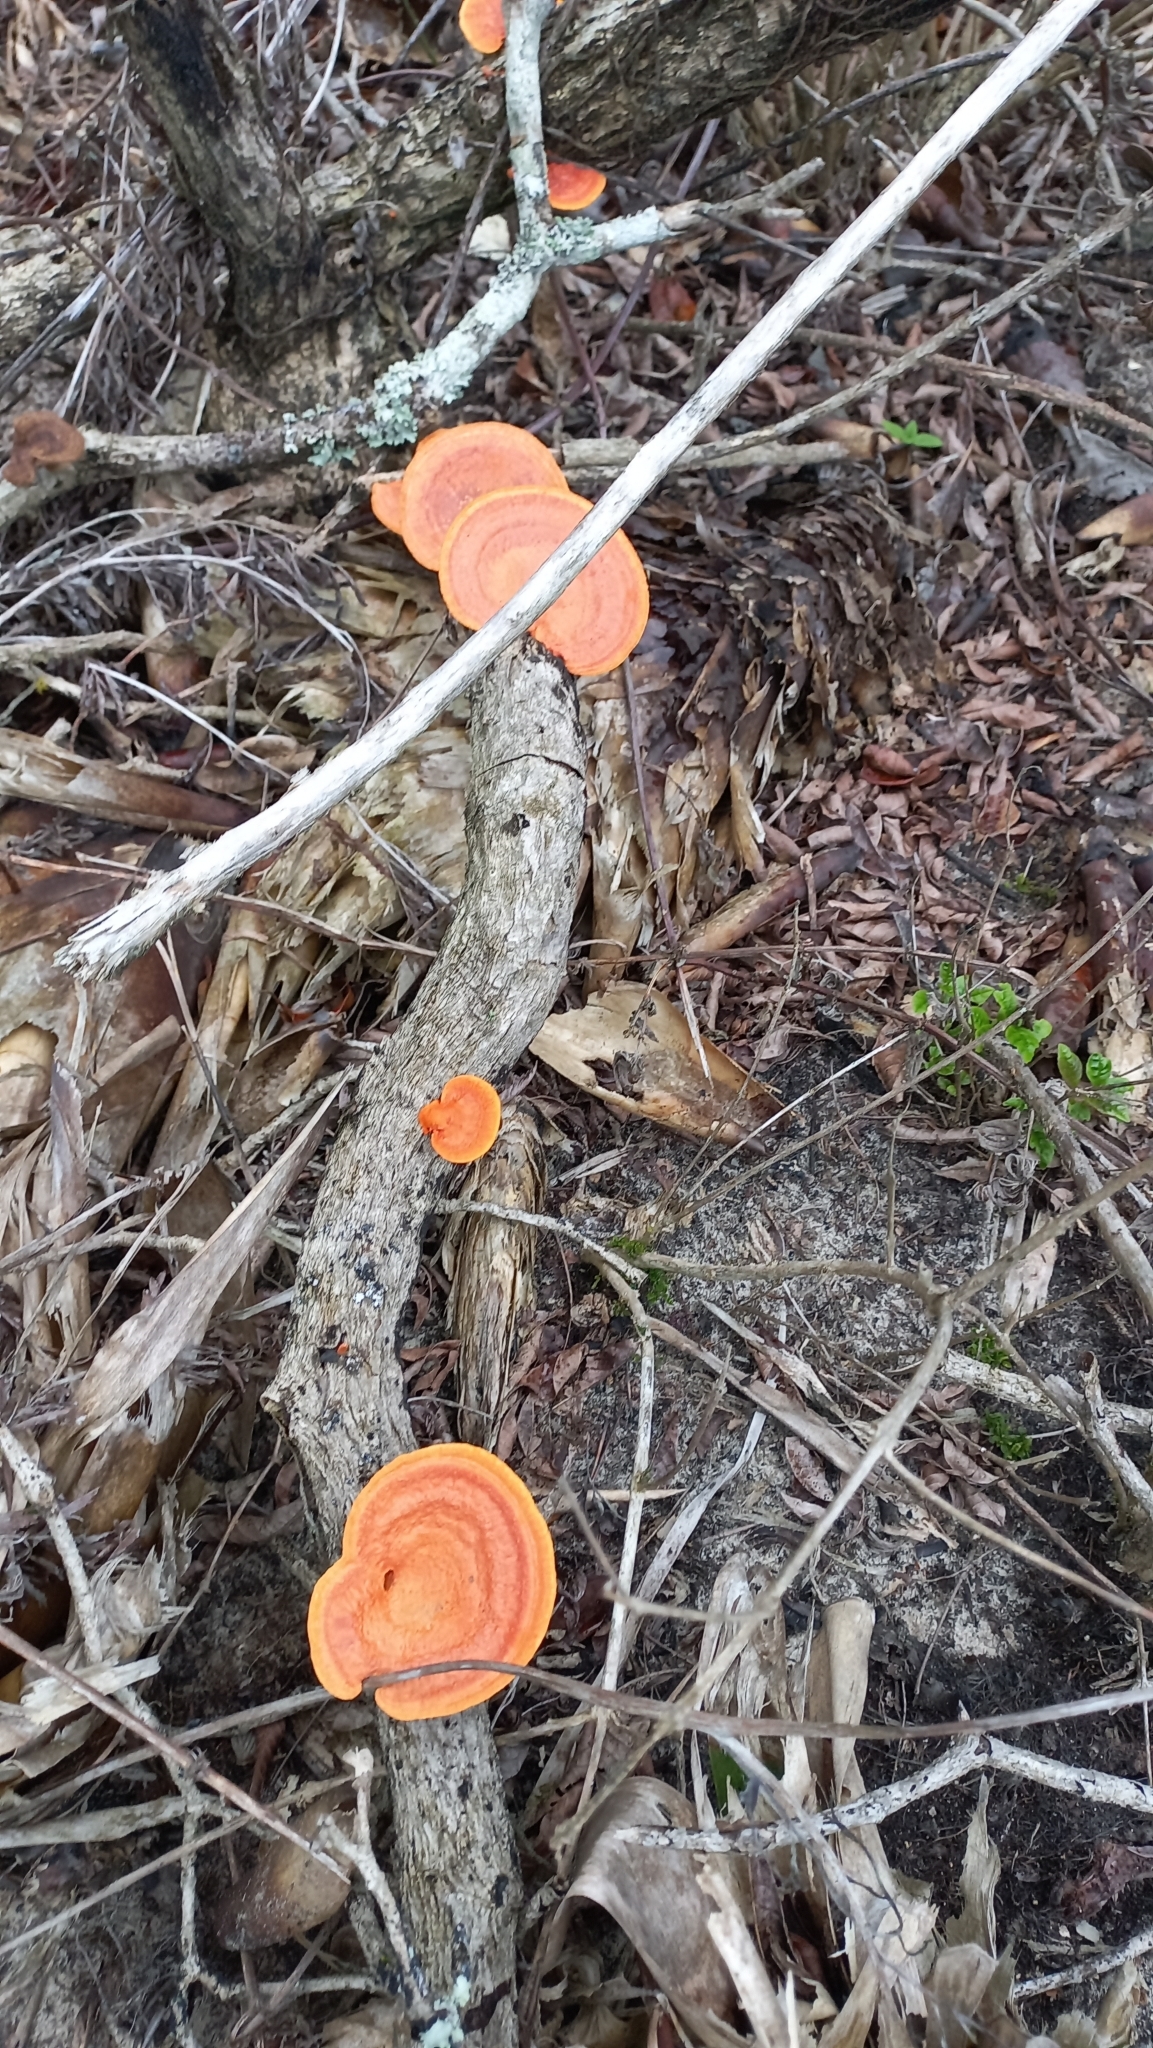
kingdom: Fungi
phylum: Basidiomycota
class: Agaricomycetes
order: Polyporales
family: Polyporaceae
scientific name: Polyporaceae
